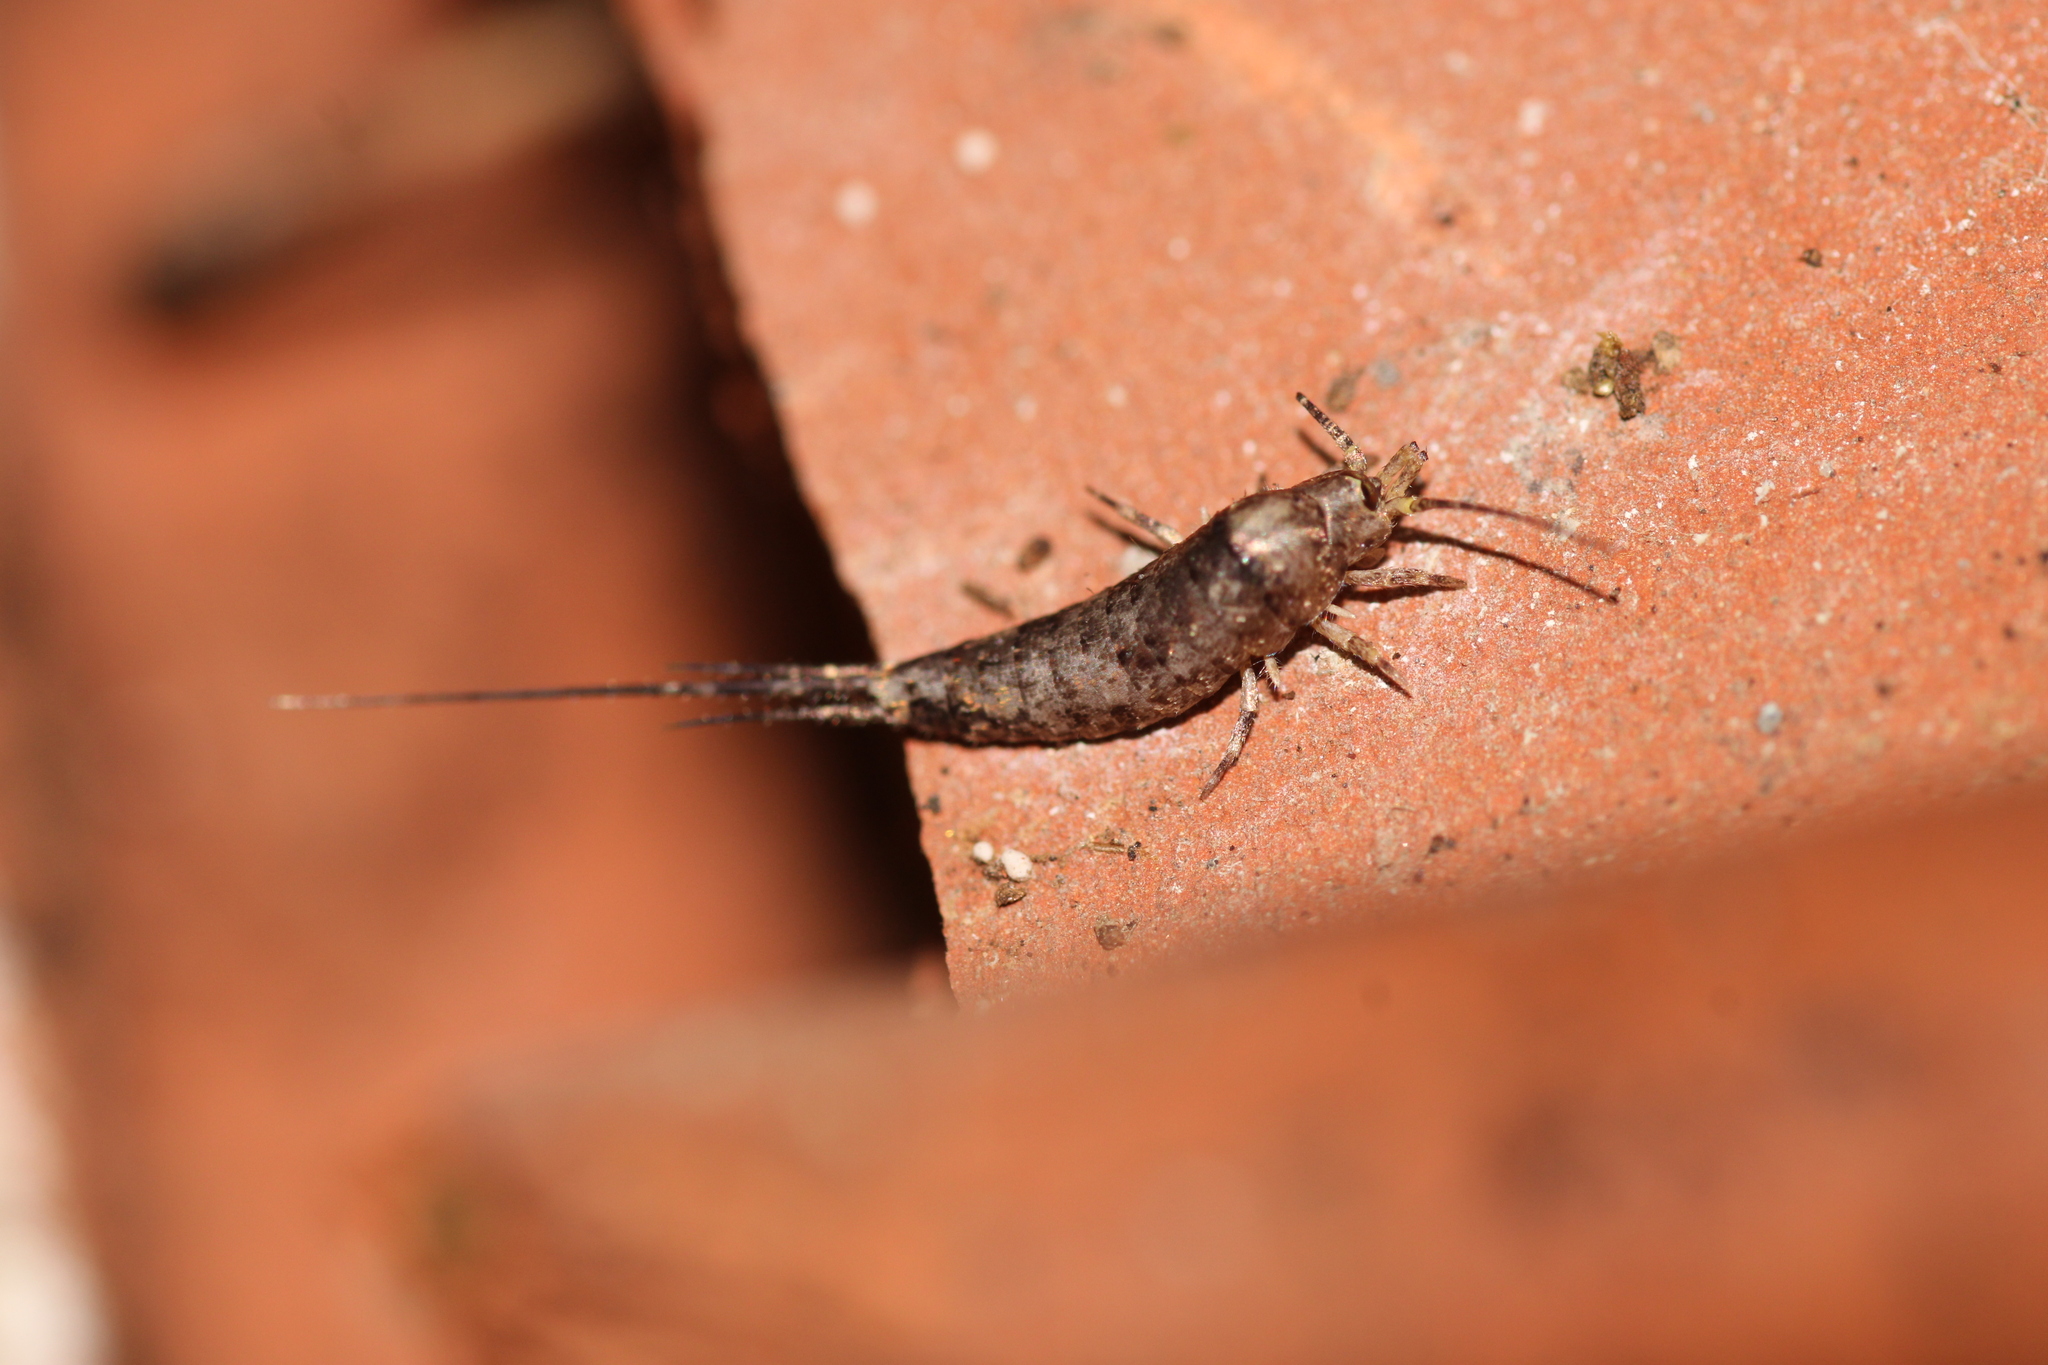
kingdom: Animalia
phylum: Arthropoda
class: Insecta
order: Archaeognatha
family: Machilidae
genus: Trigoniophthalmus
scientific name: Trigoniophthalmus alternatus
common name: Jumping bristletail
